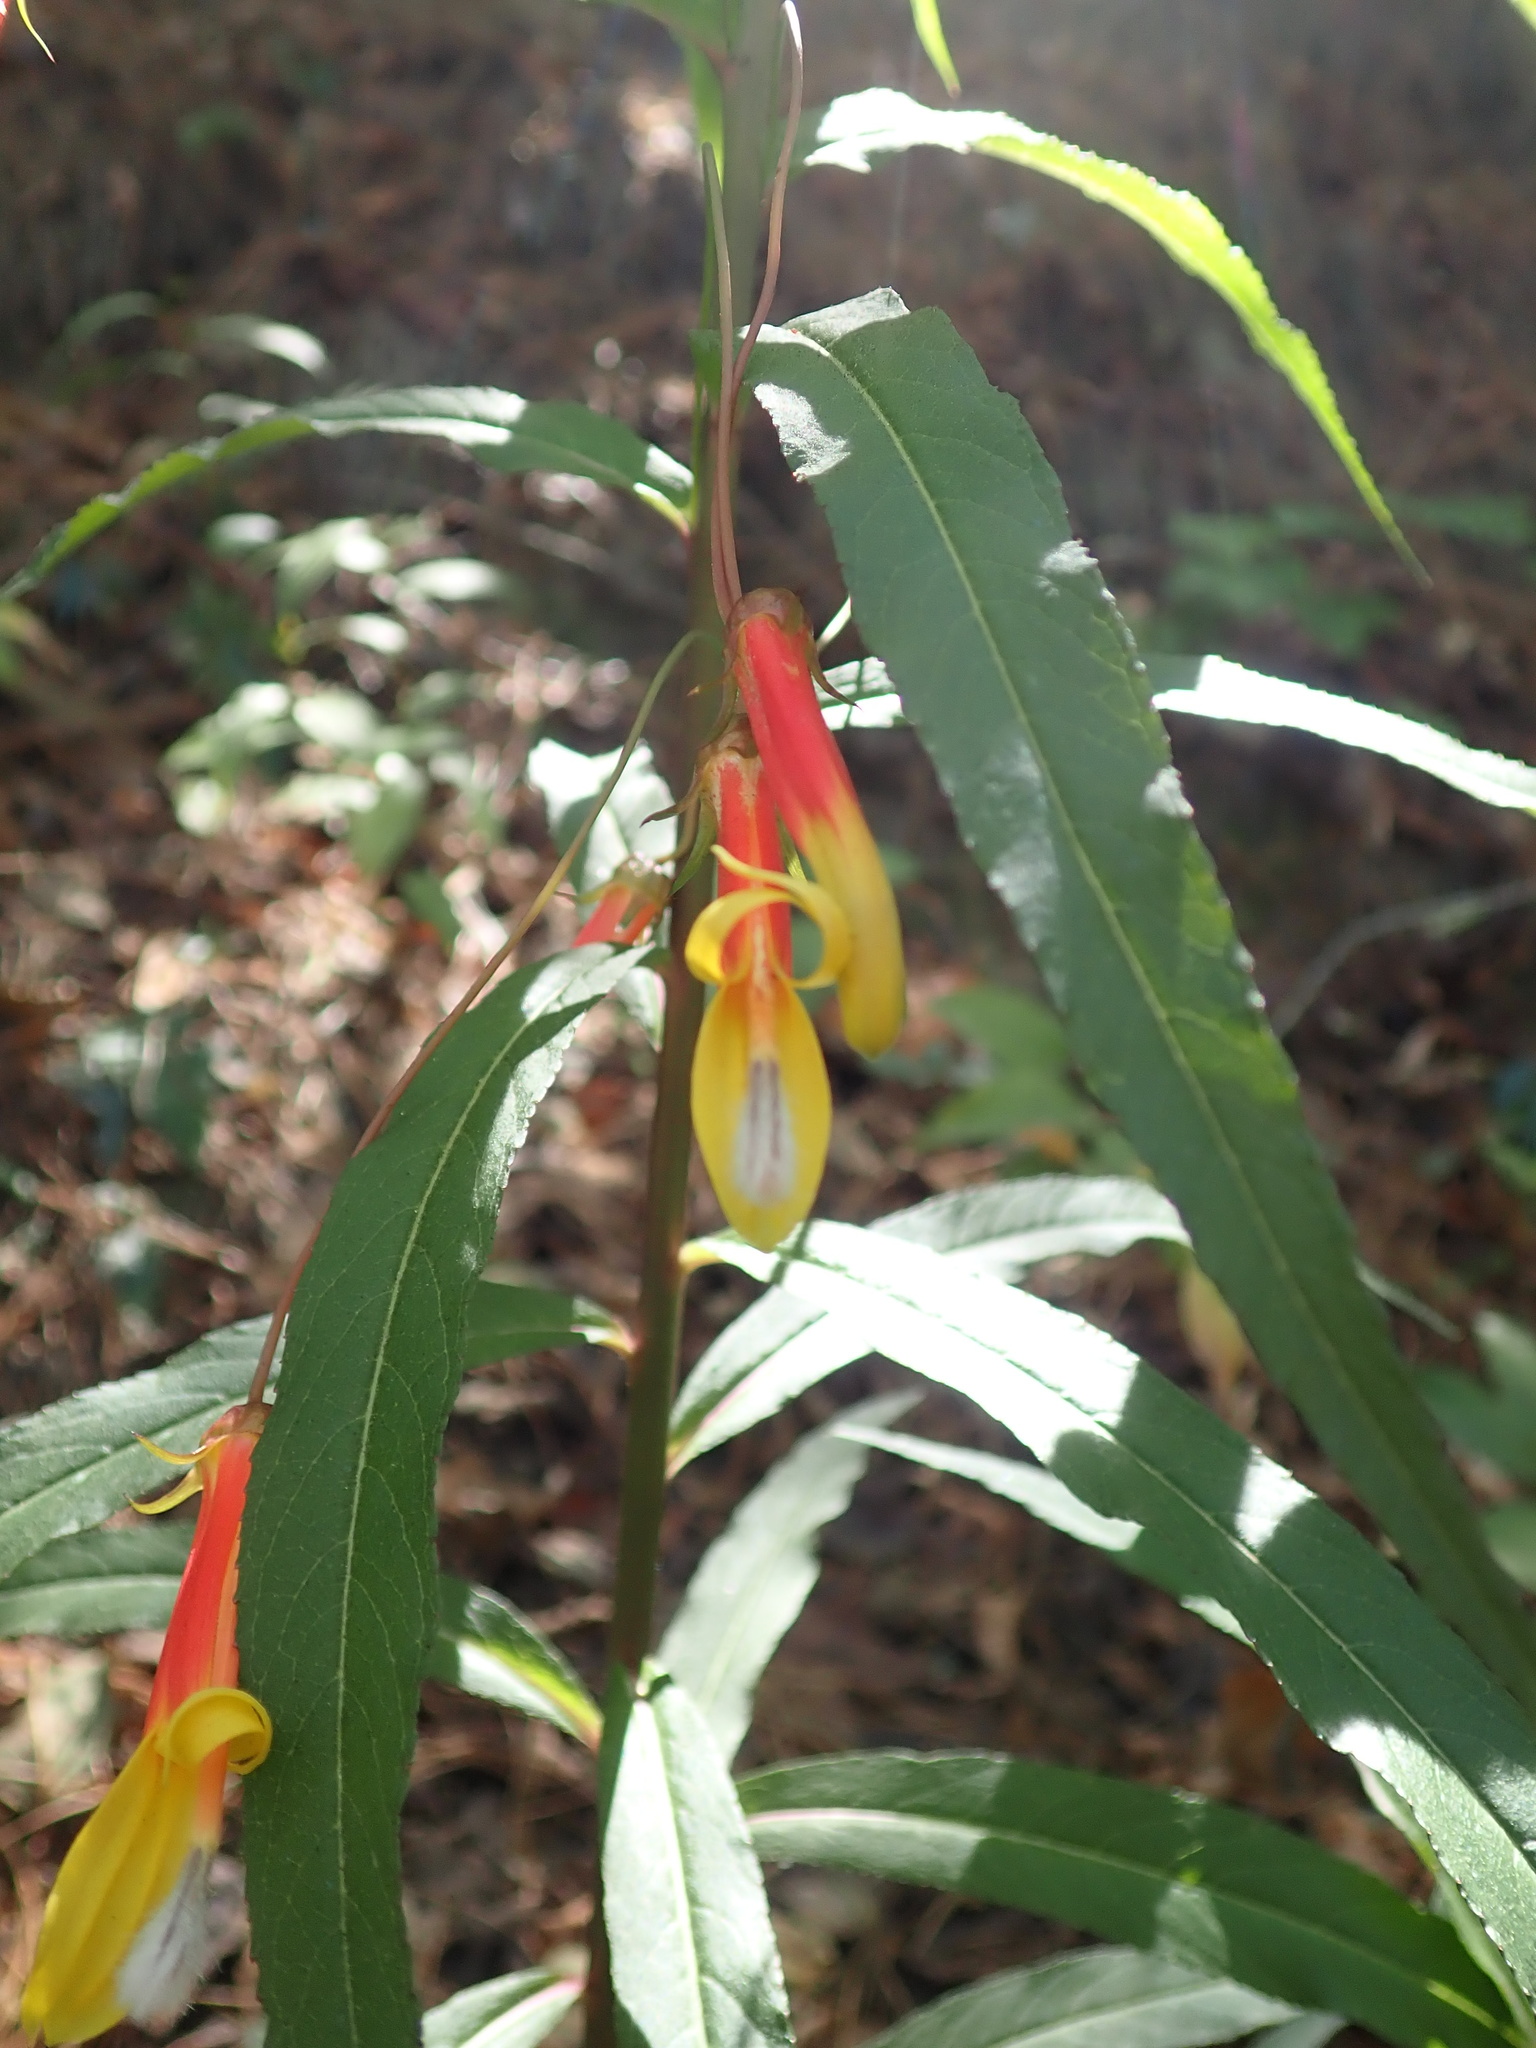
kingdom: Plantae
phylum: Tracheophyta
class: Magnoliopsida
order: Asterales
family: Campanulaceae
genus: Lobelia
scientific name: Lobelia laxiflora
